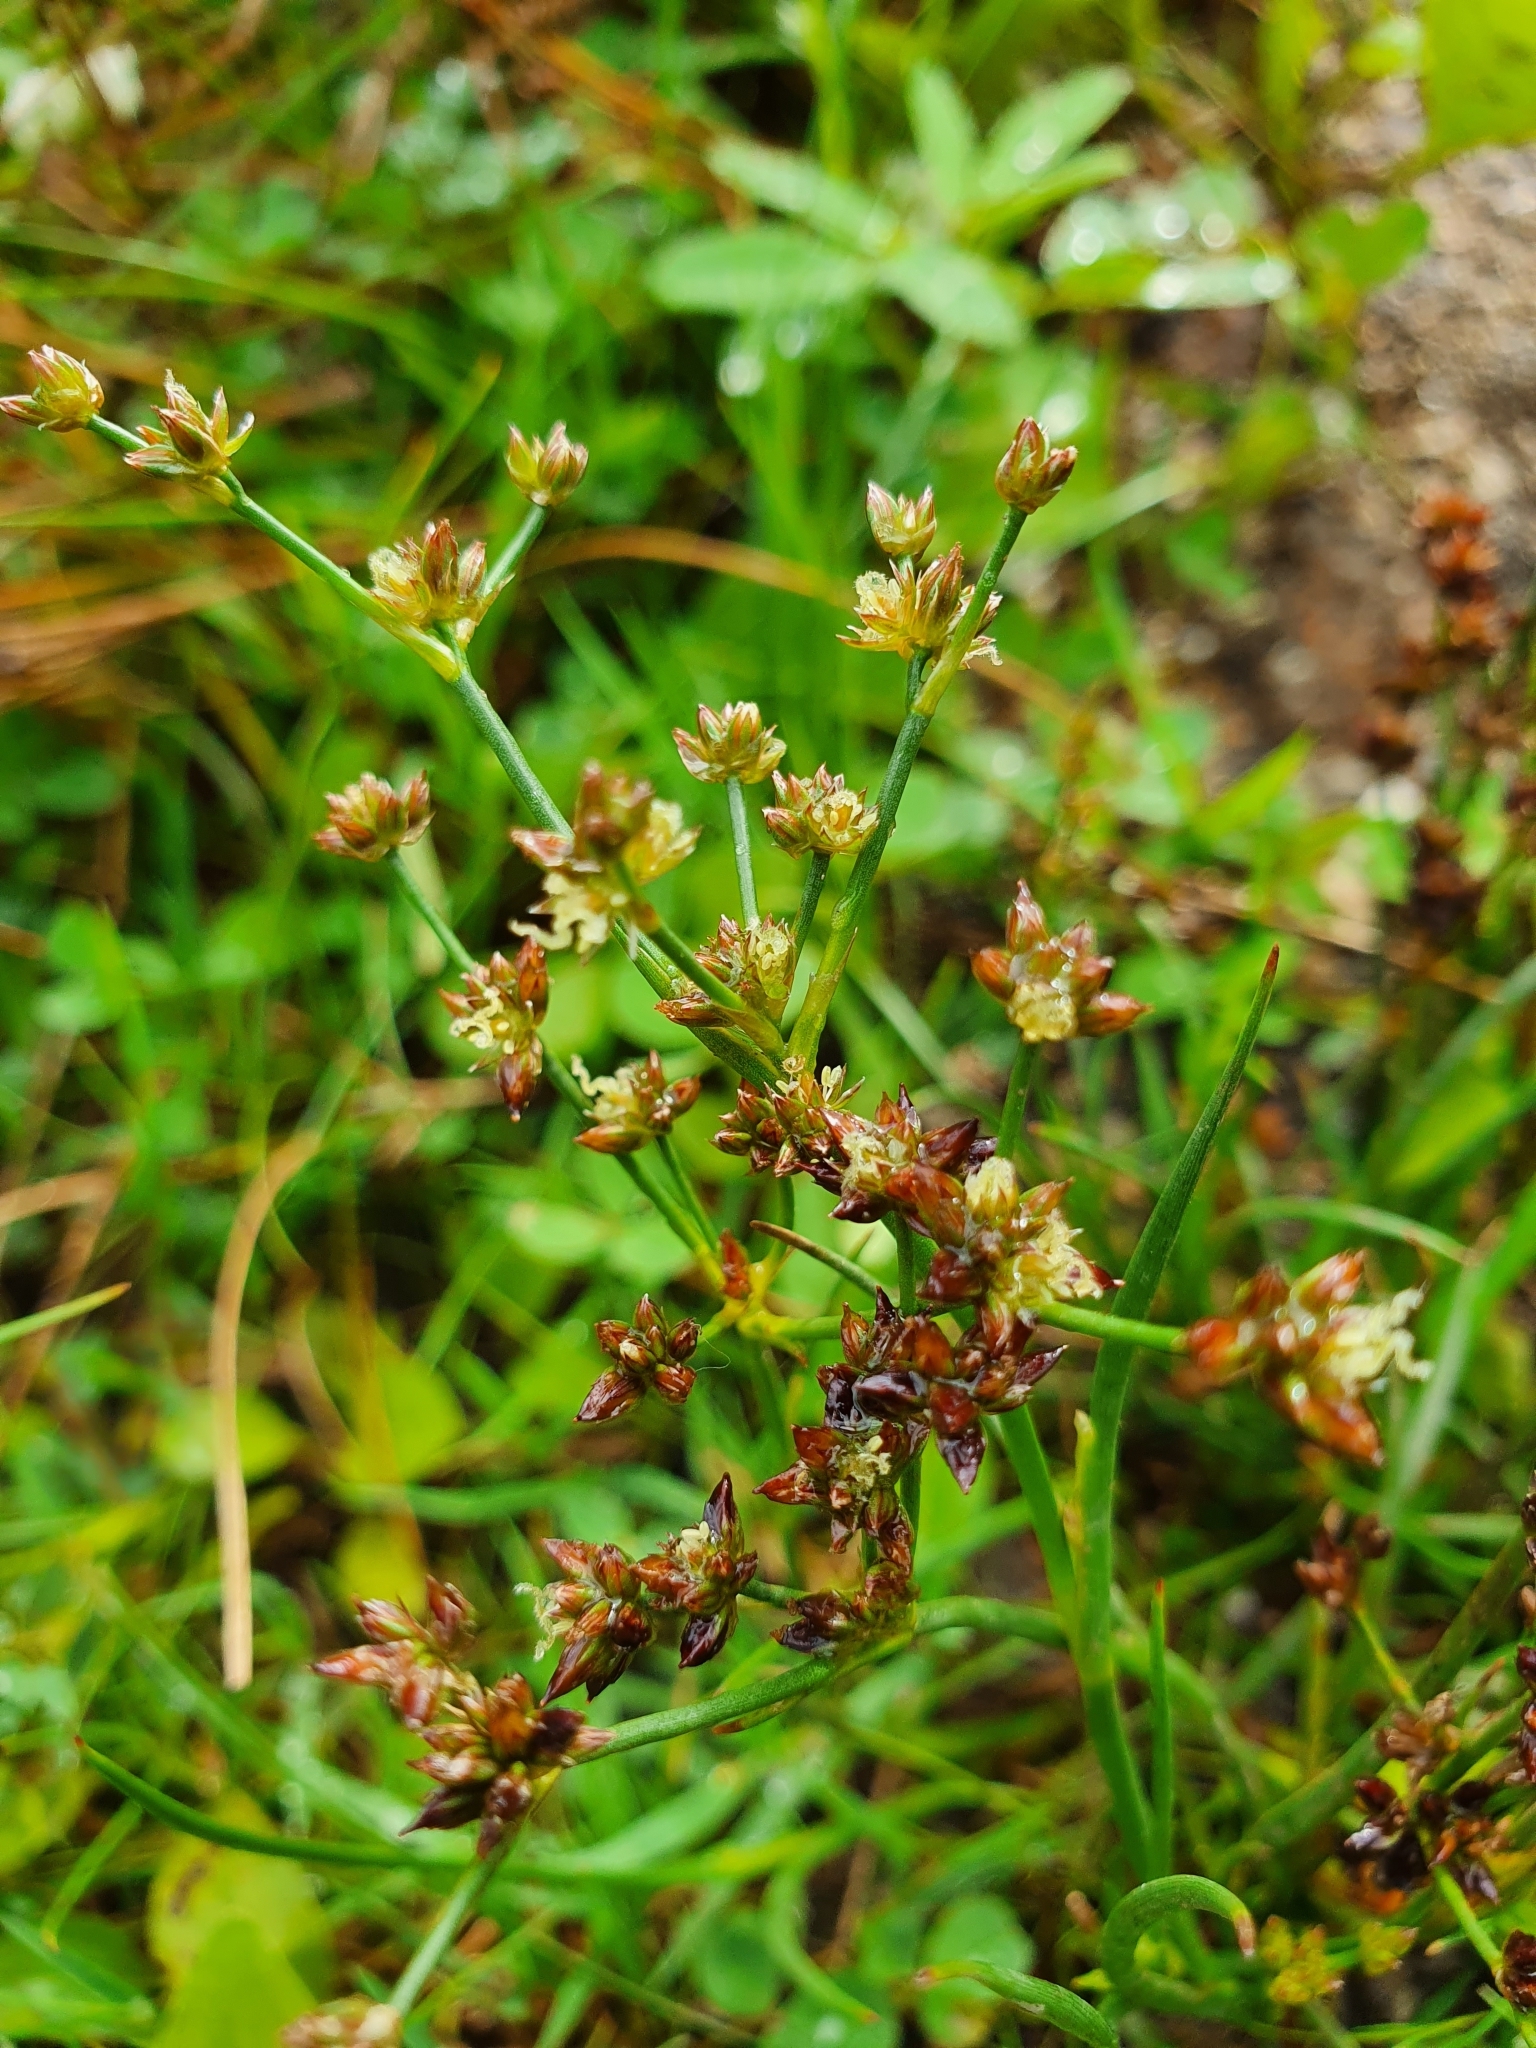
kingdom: Plantae
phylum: Tracheophyta
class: Liliopsida
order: Poales
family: Juncaceae
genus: Juncus
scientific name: Juncus articulatus
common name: Jointed rush
